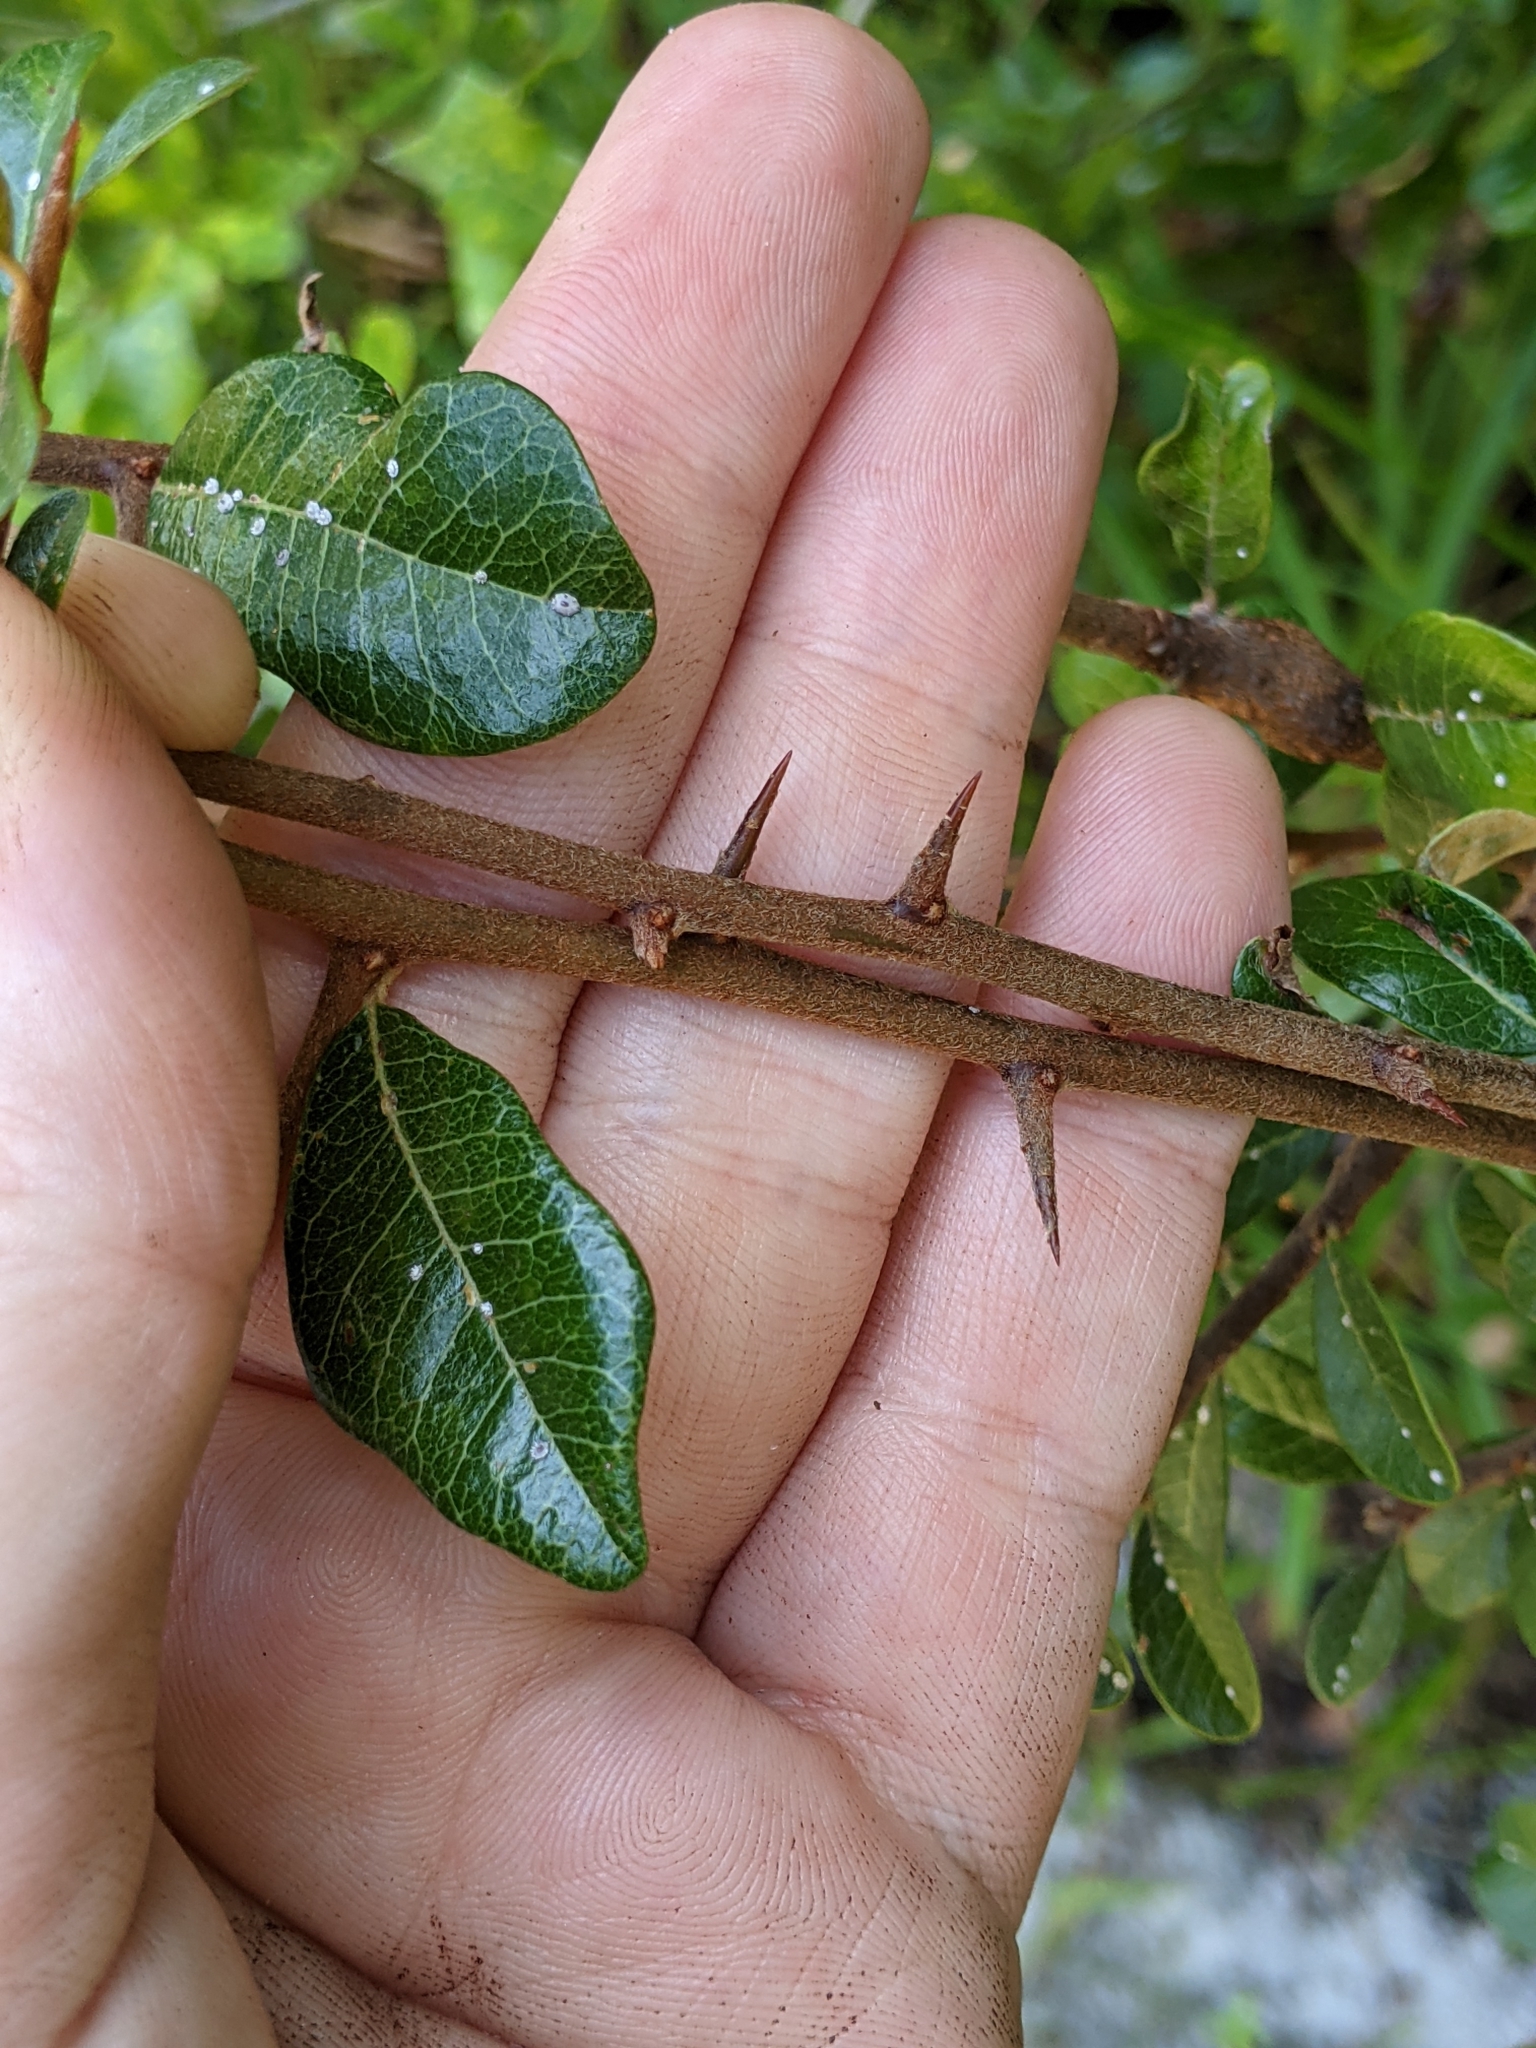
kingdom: Plantae
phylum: Tracheophyta
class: Magnoliopsida
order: Ericales
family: Sapotaceae
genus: Sideroxylon
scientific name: Sideroxylon tenax
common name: Tough-buckthorn
